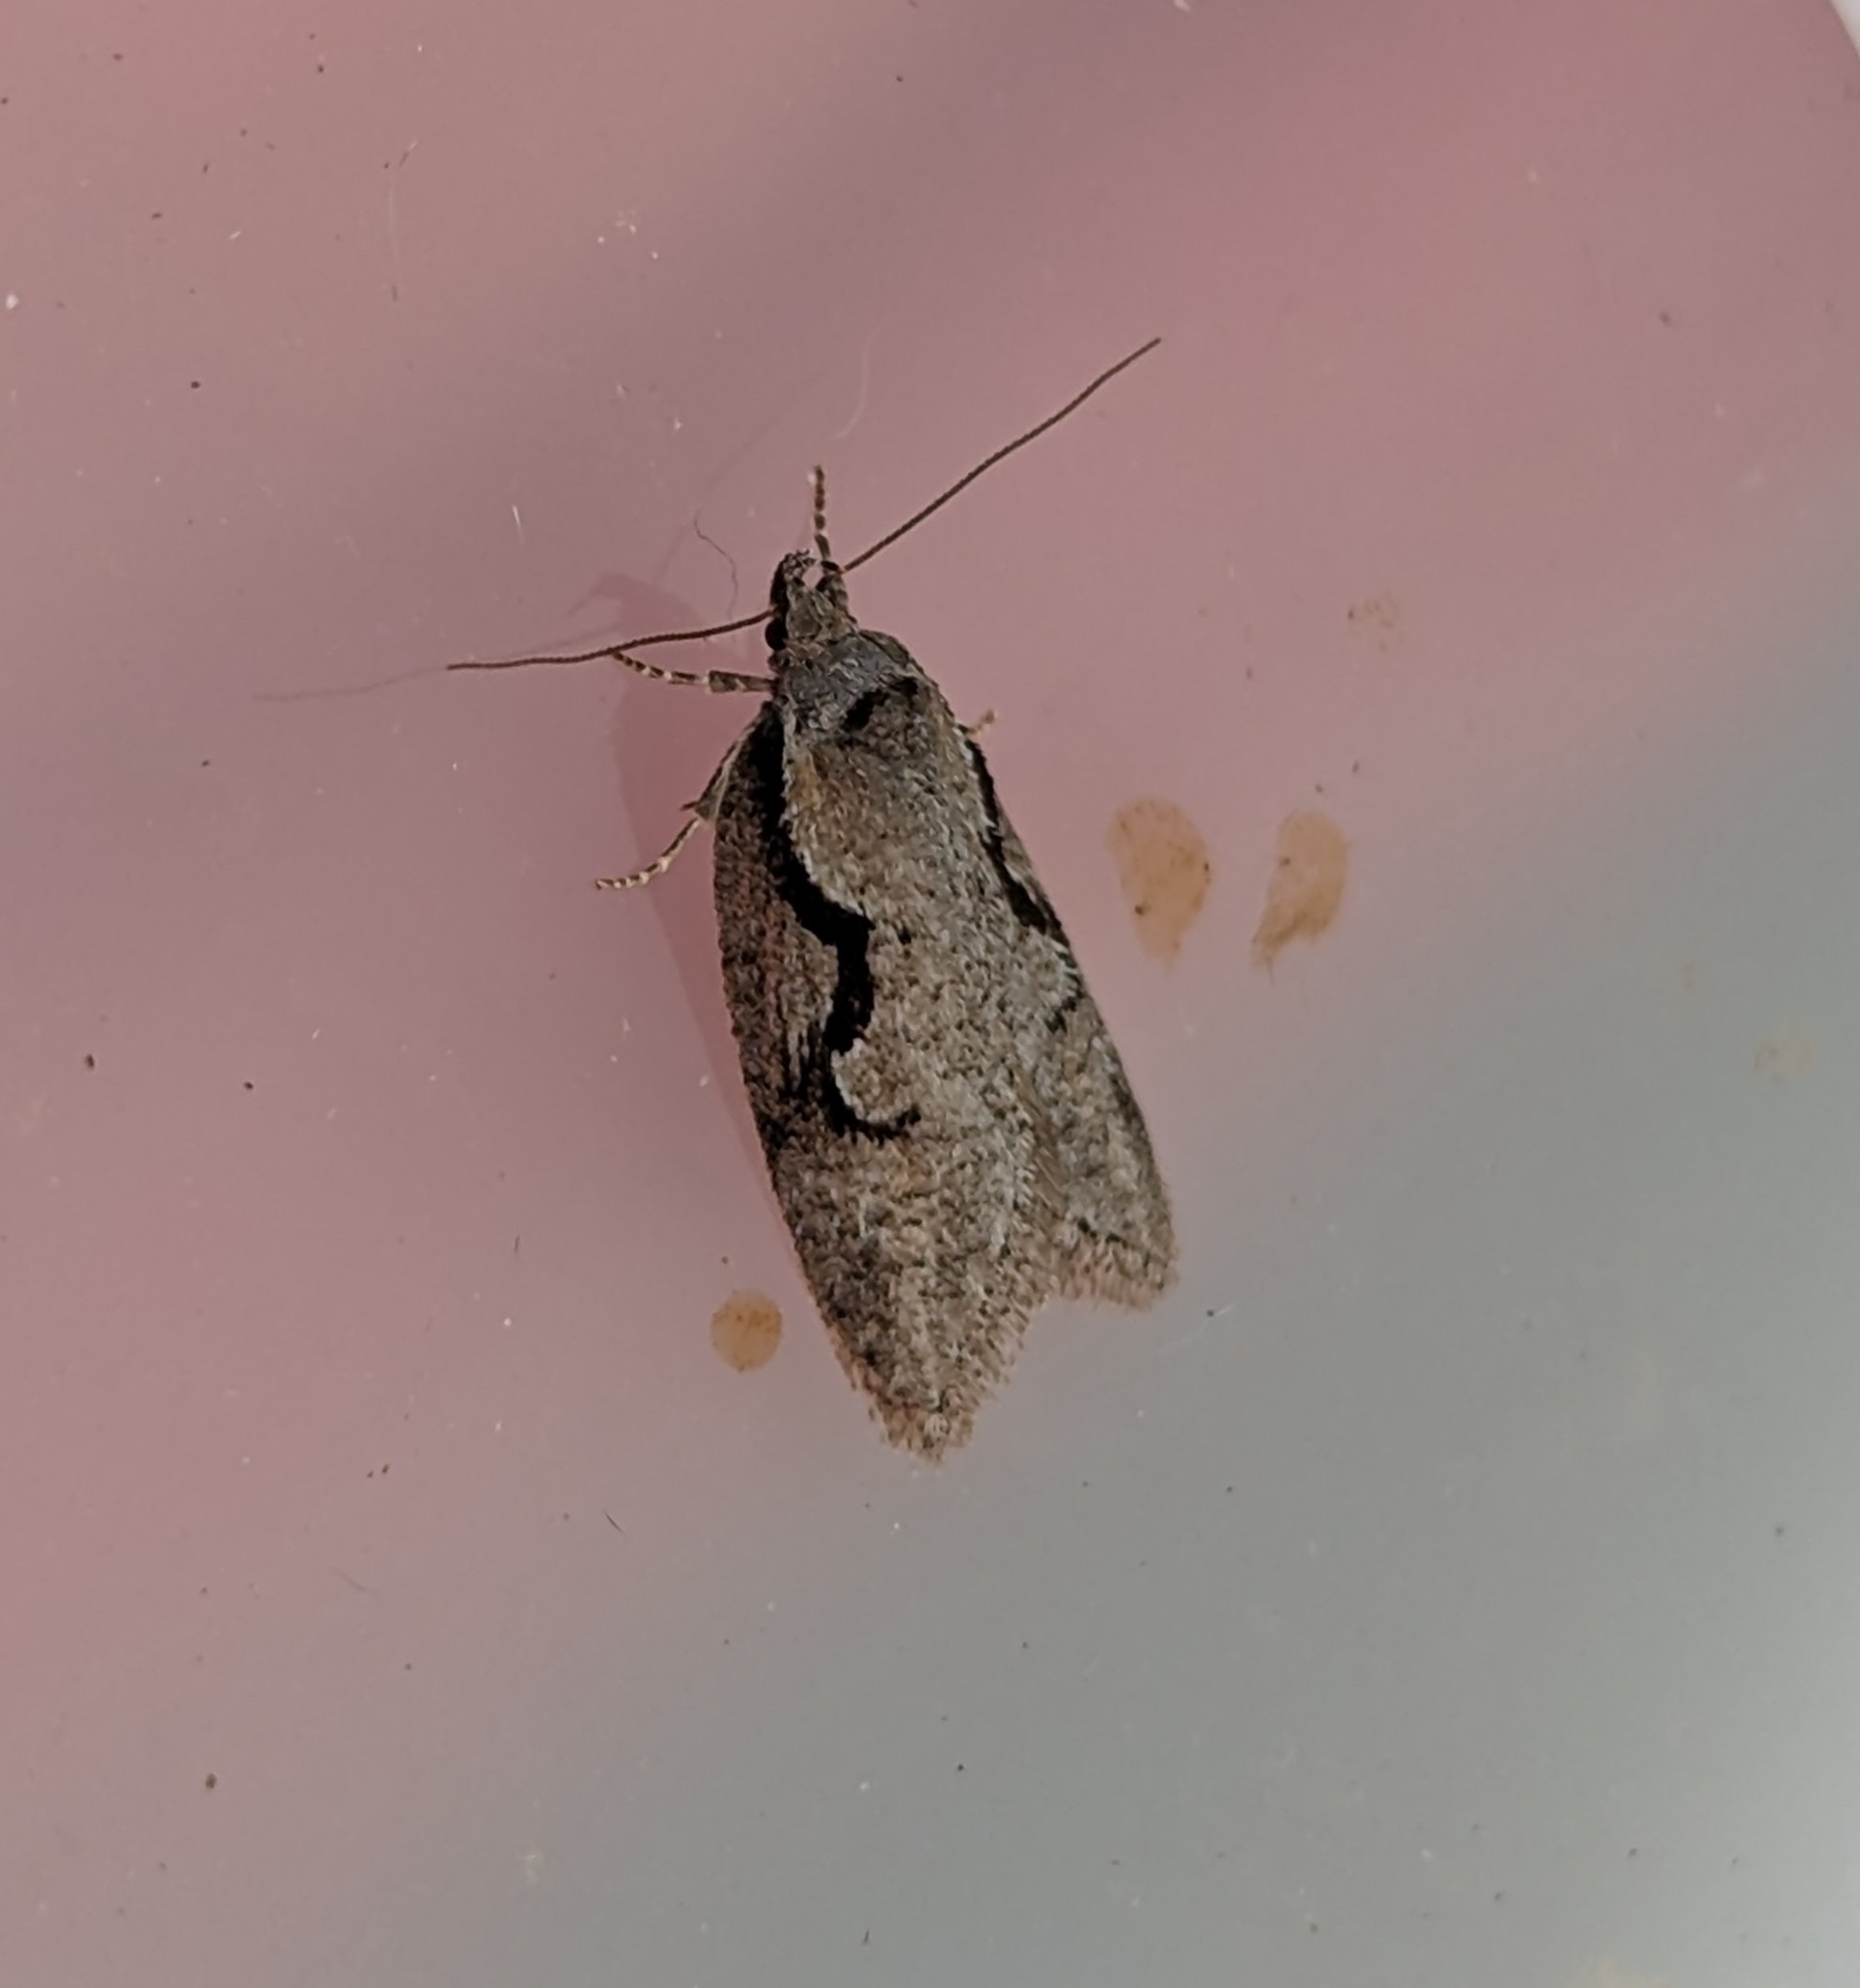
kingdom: Animalia
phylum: Arthropoda
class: Insecta
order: Lepidoptera
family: Depressariidae
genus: Semioscopis
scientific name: Semioscopis packardella
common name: Packard's concealer moth
